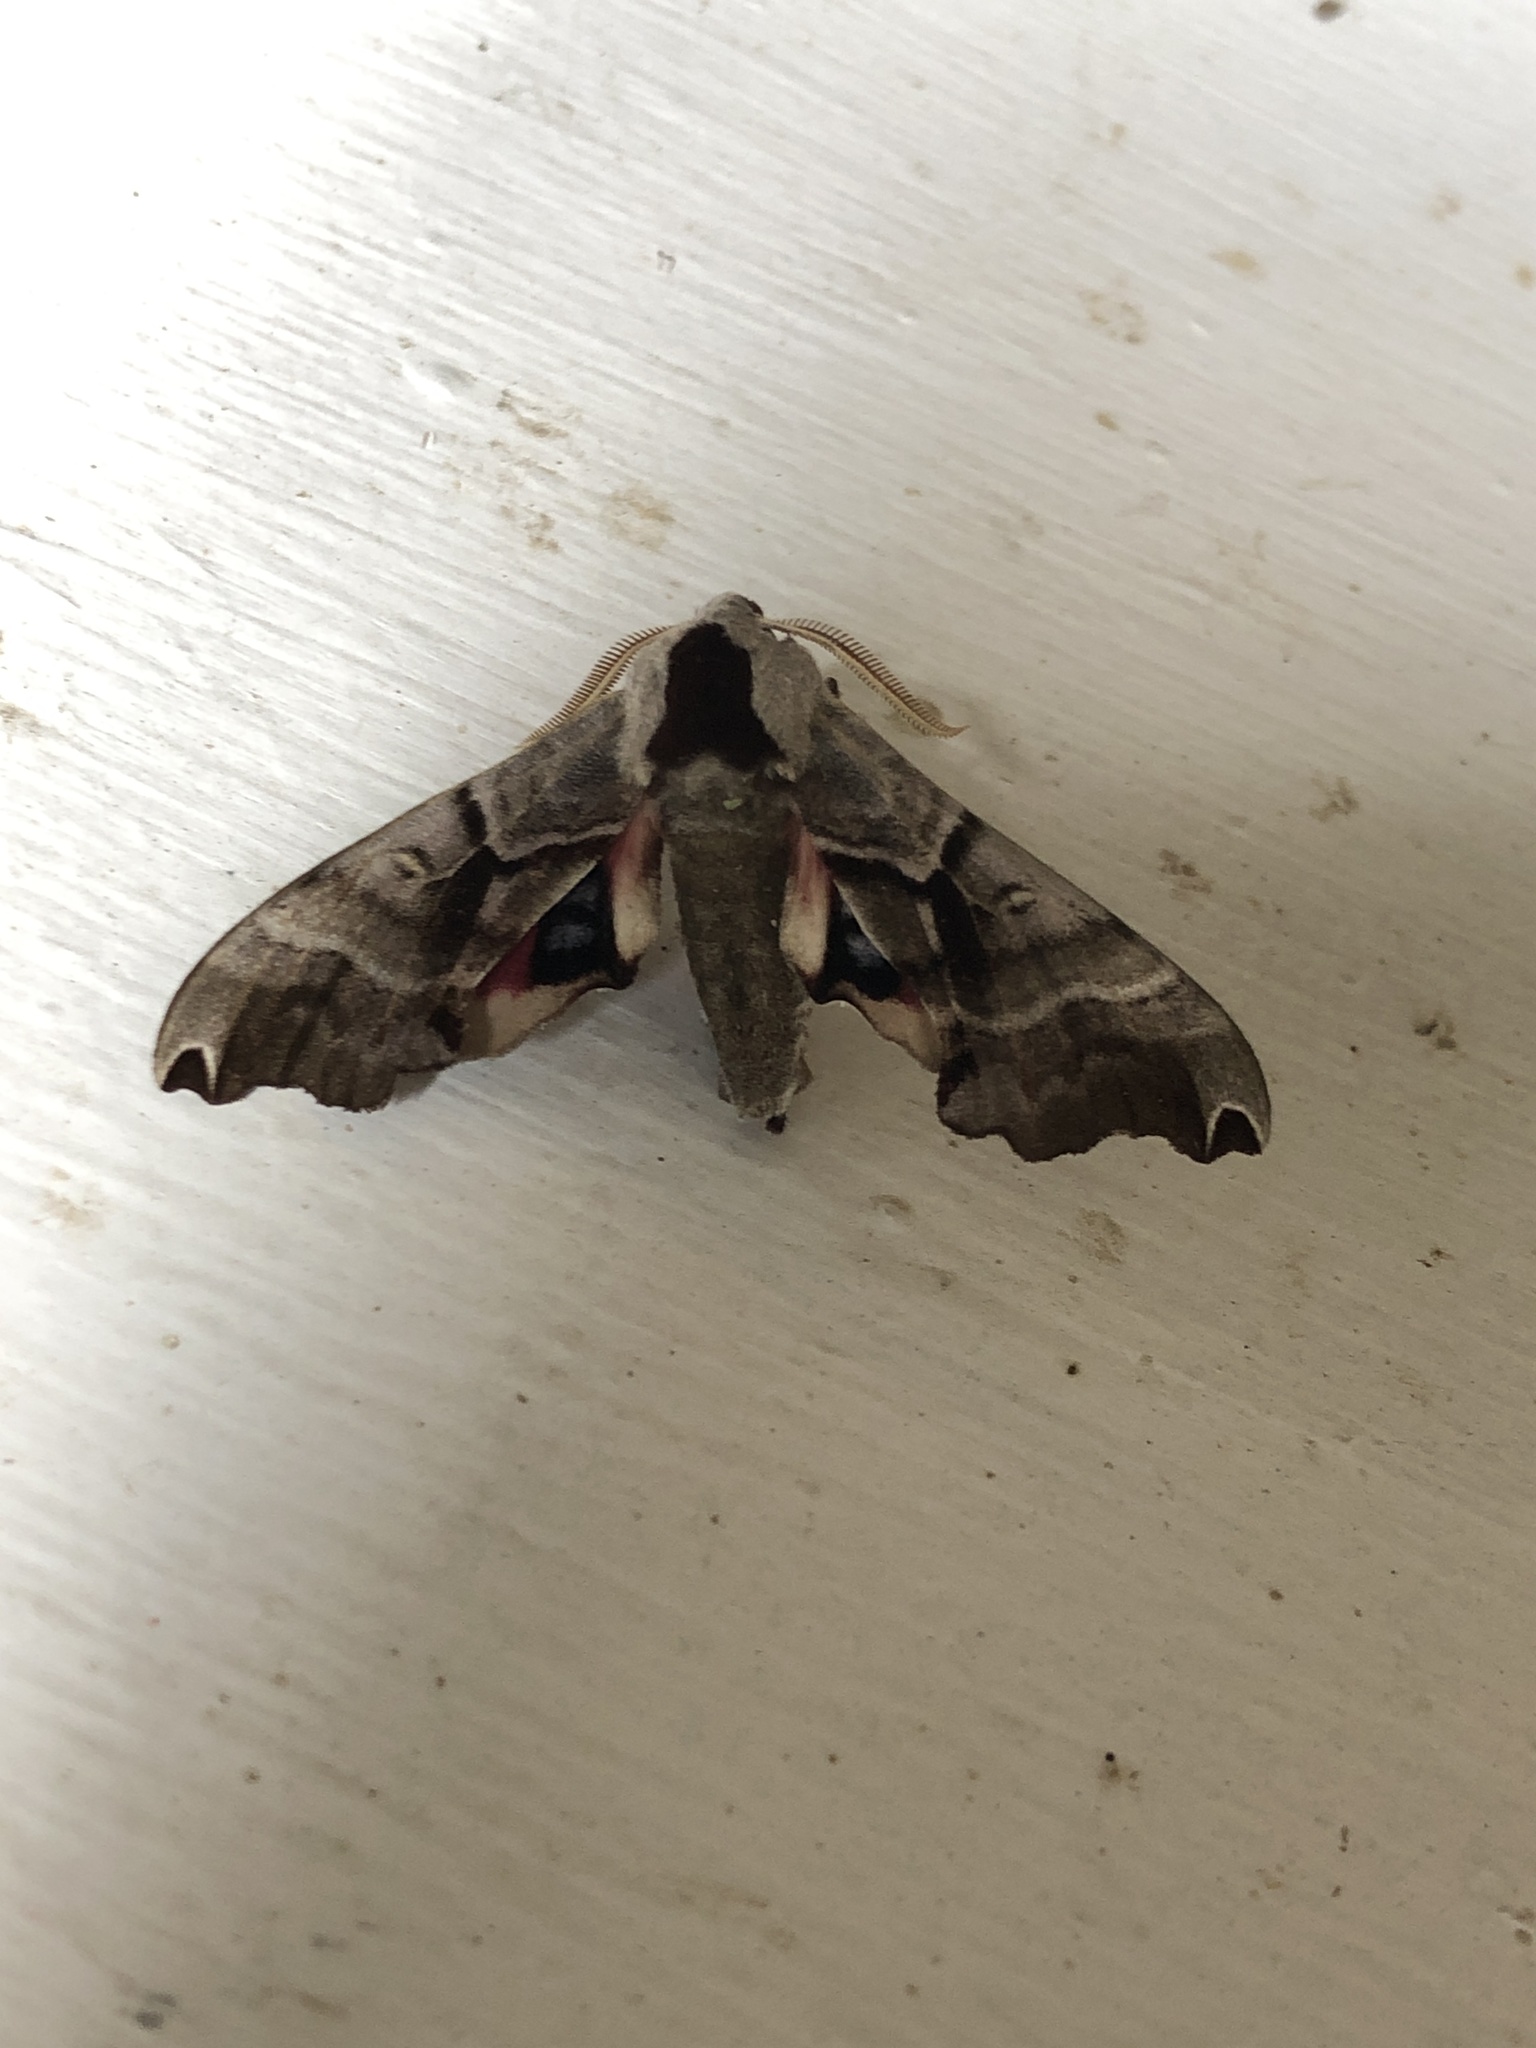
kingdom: Animalia
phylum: Arthropoda
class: Insecta
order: Lepidoptera
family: Sphingidae
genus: Smerinthus
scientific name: Smerinthus jamaicensis
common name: Twin spotted sphinx
